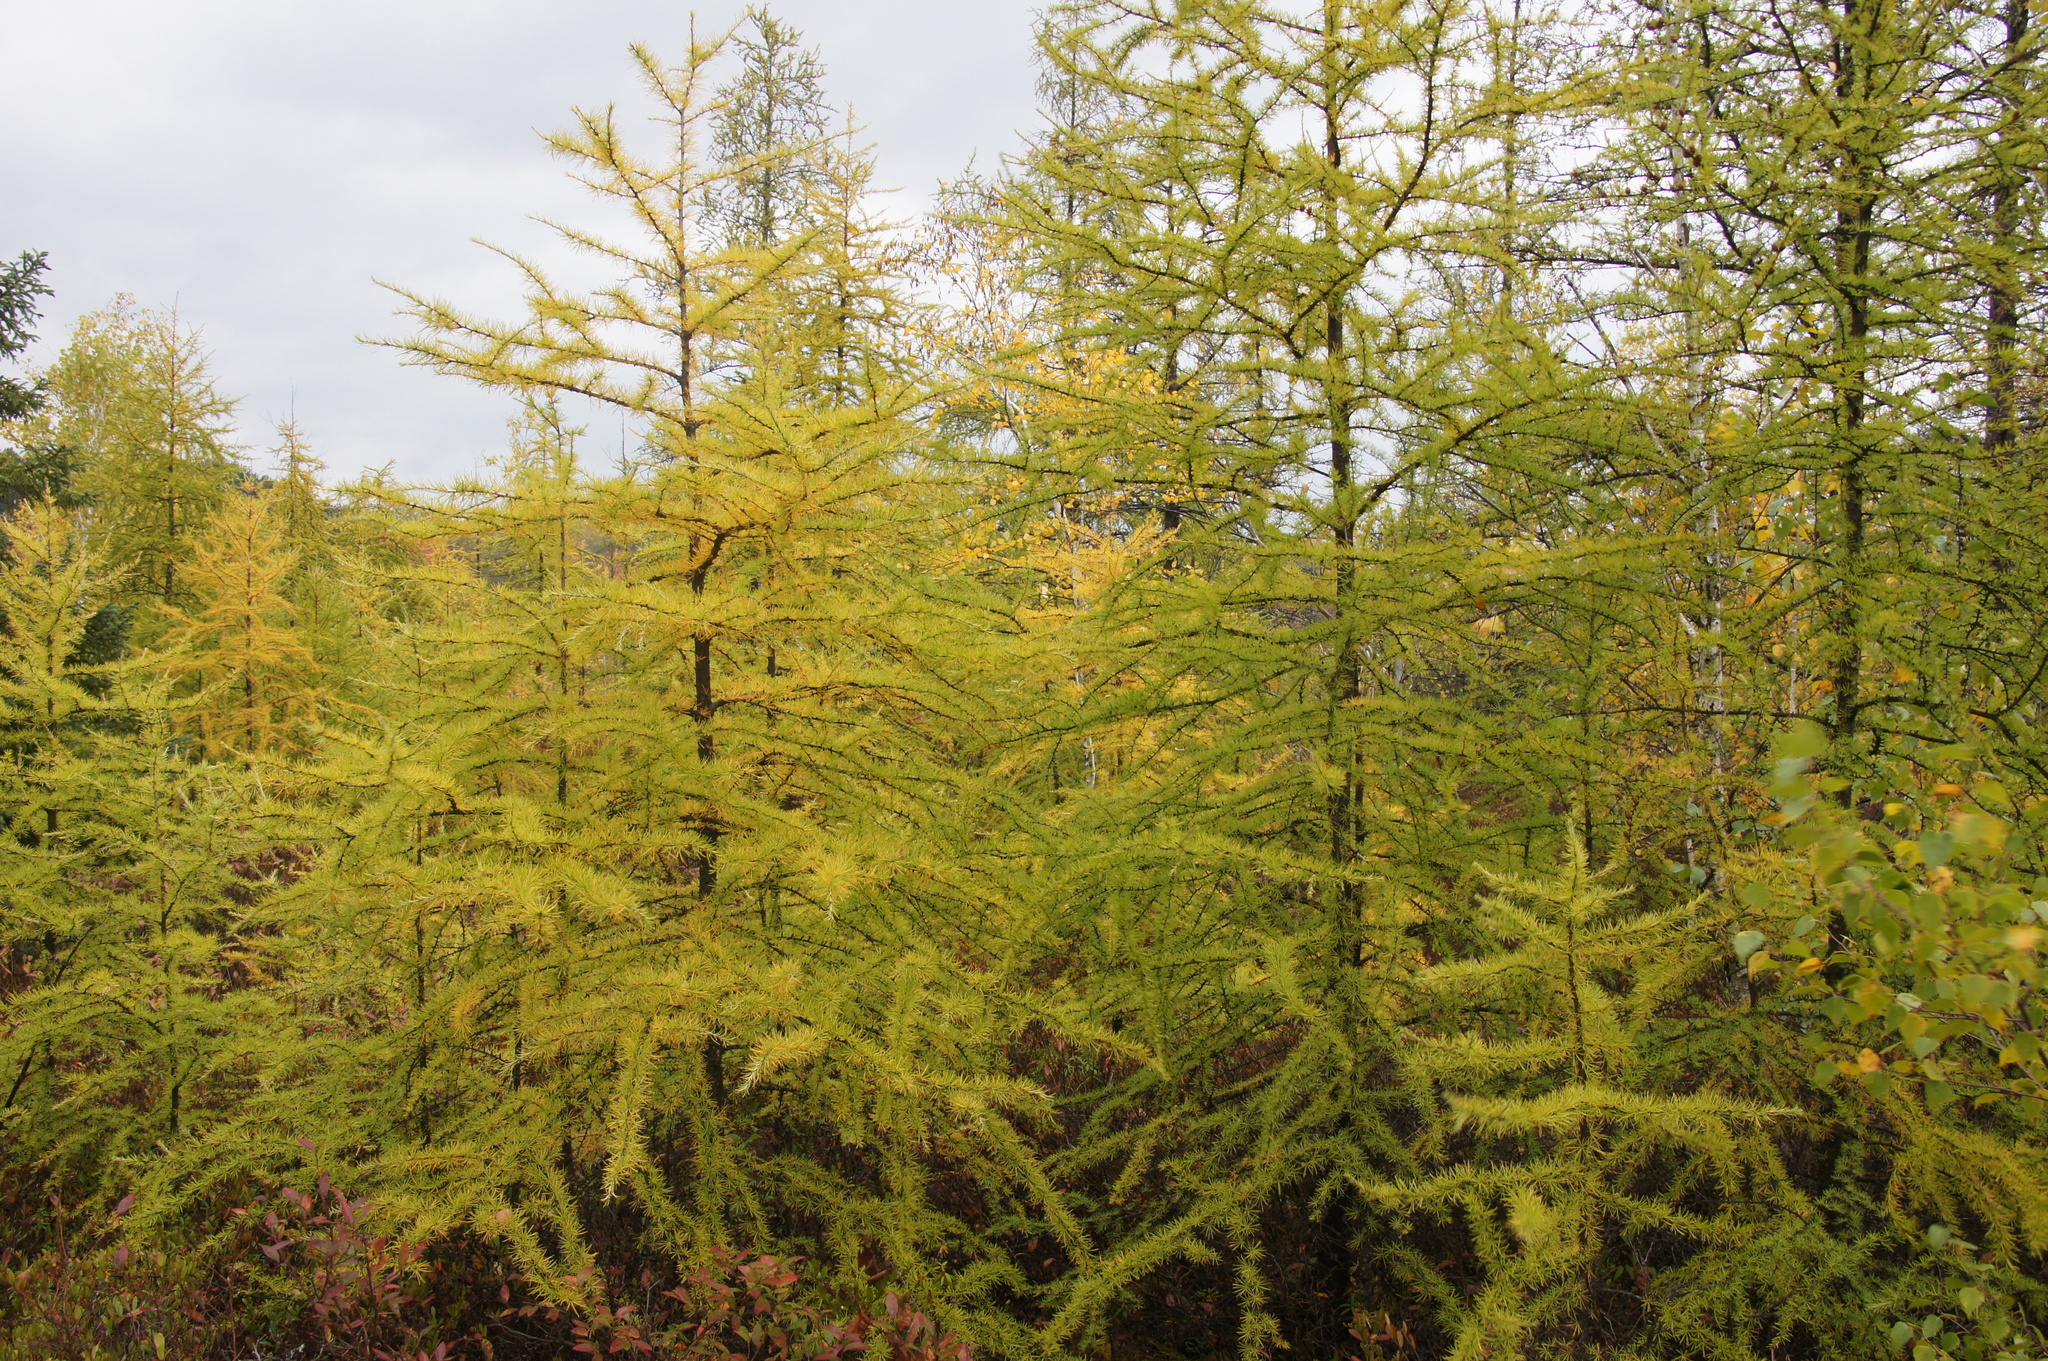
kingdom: Plantae
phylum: Tracheophyta
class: Pinopsida
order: Pinales
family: Pinaceae
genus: Larix
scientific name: Larix laricina
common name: American larch
